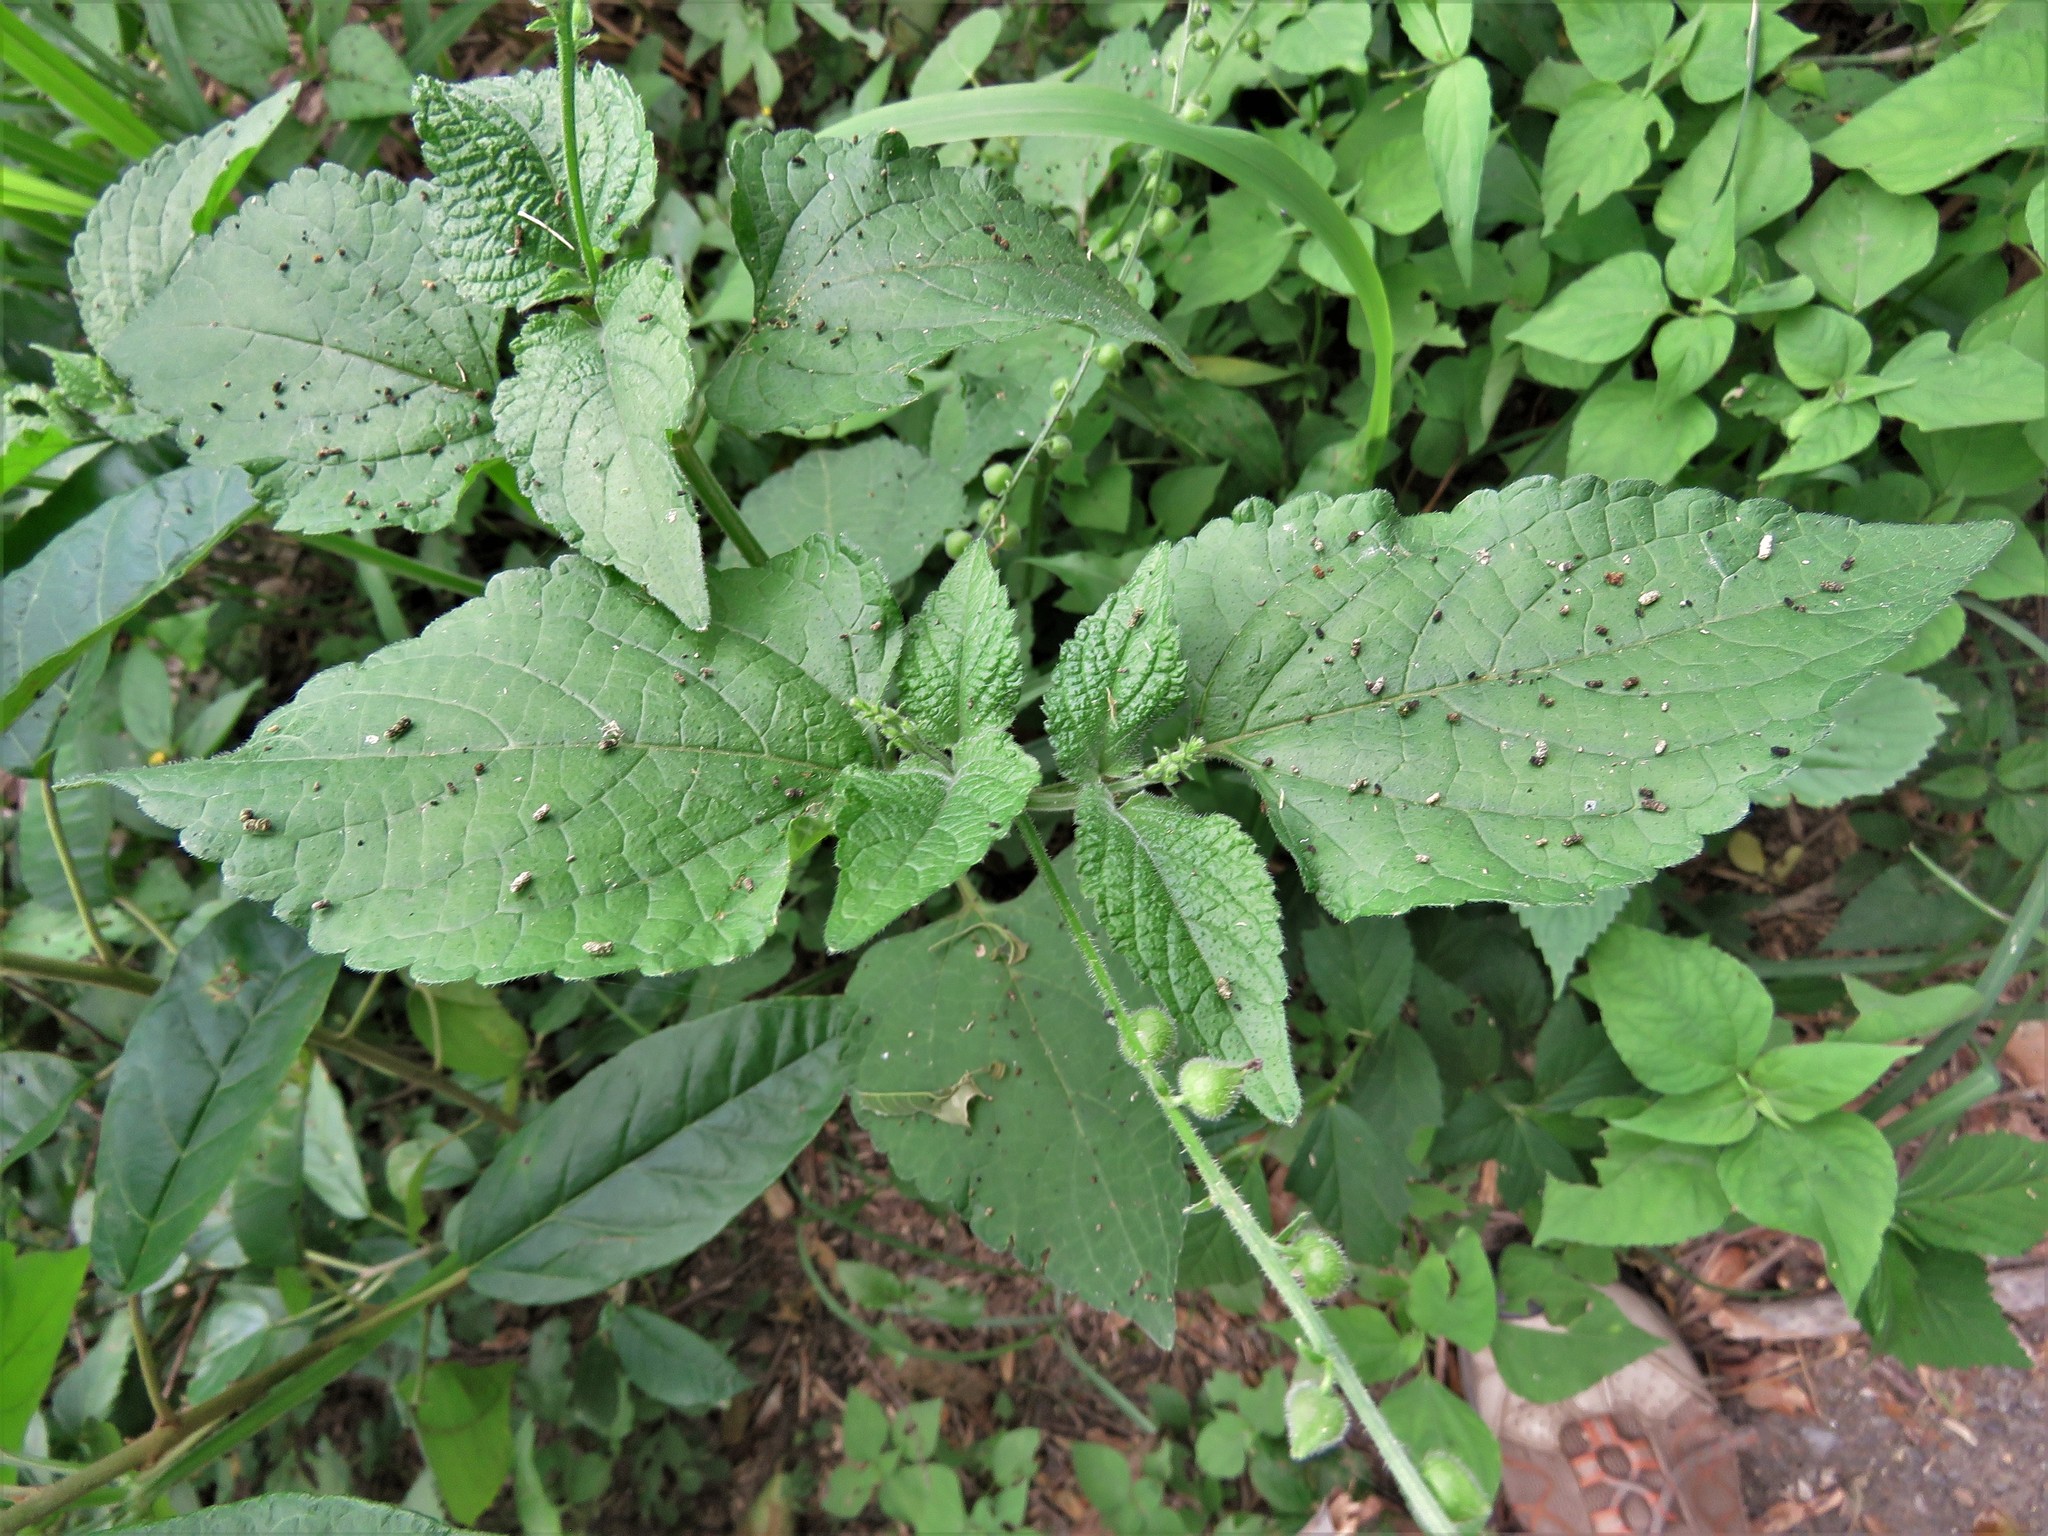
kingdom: Plantae
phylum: Tracheophyta
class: Magnoliopsida
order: Lamiales
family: Verbenaceae
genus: Priva
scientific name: Priva lappulacea
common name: Fasten-'pon-coat
